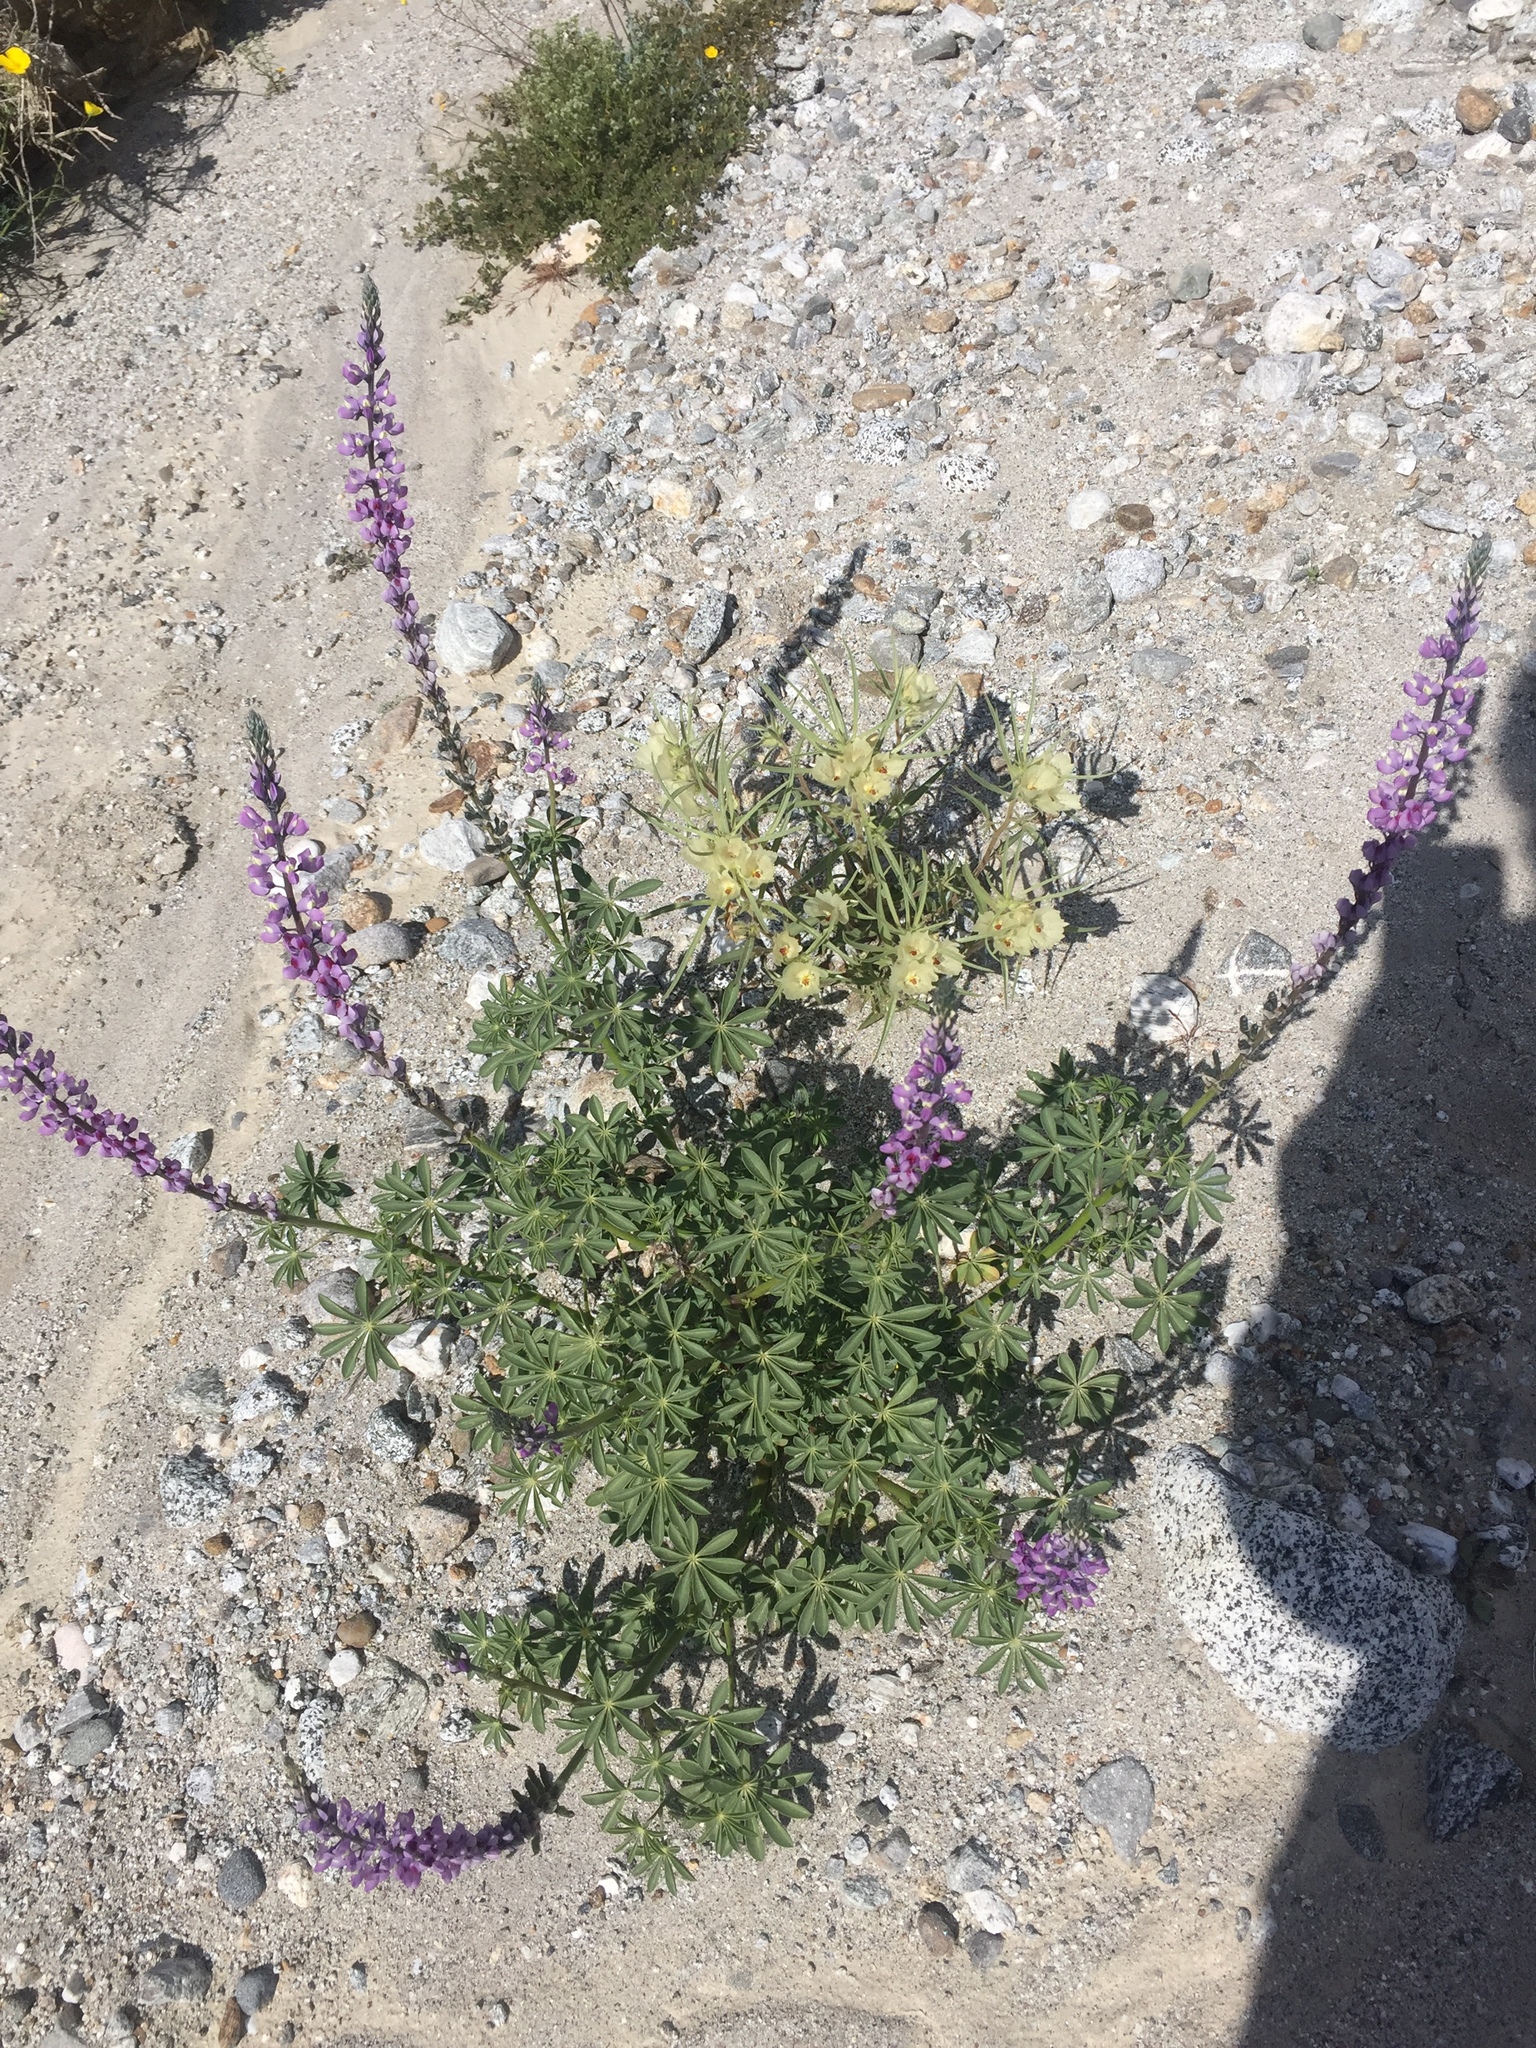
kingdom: Plantae
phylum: Tracheophyta
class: Magnoliopsida
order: Fabales
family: Fabaceae
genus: Lupinus
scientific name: Lupinus arizonicus
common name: Arizona lupine
